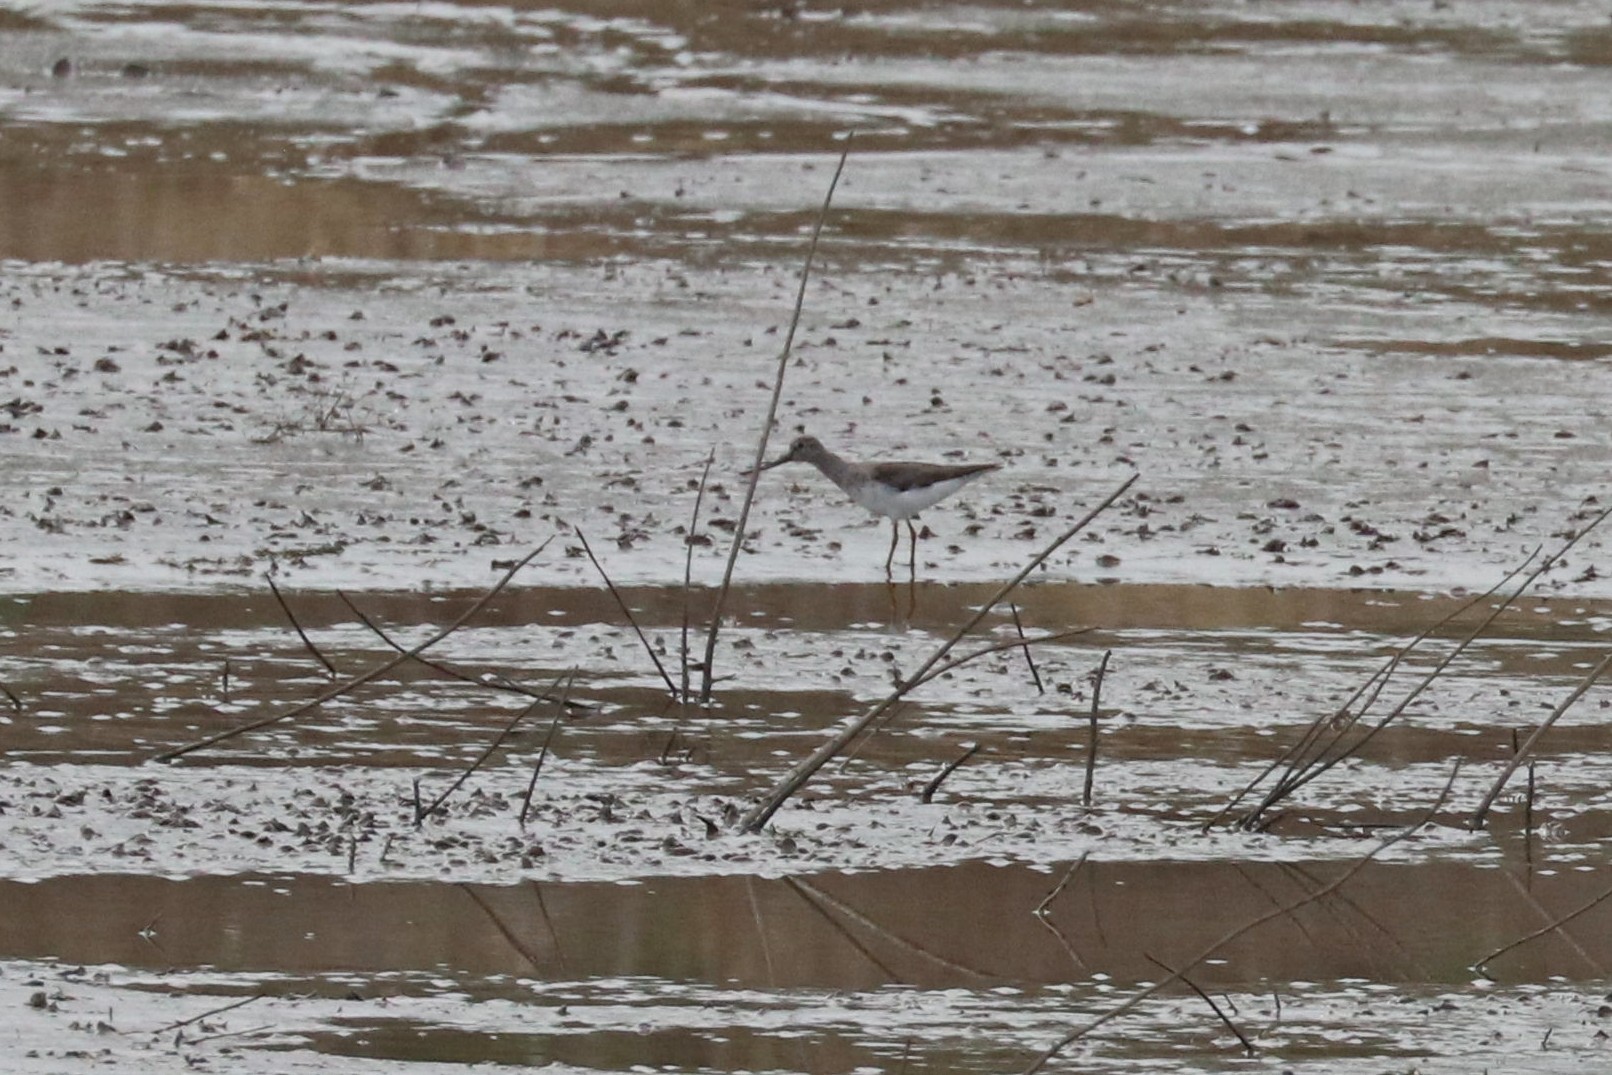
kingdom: Animalia
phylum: Chordata
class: Aves
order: Charadriiformes
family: Scolopacidae
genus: Xenus
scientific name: Xenus cinereus
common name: Terek sandpiper
